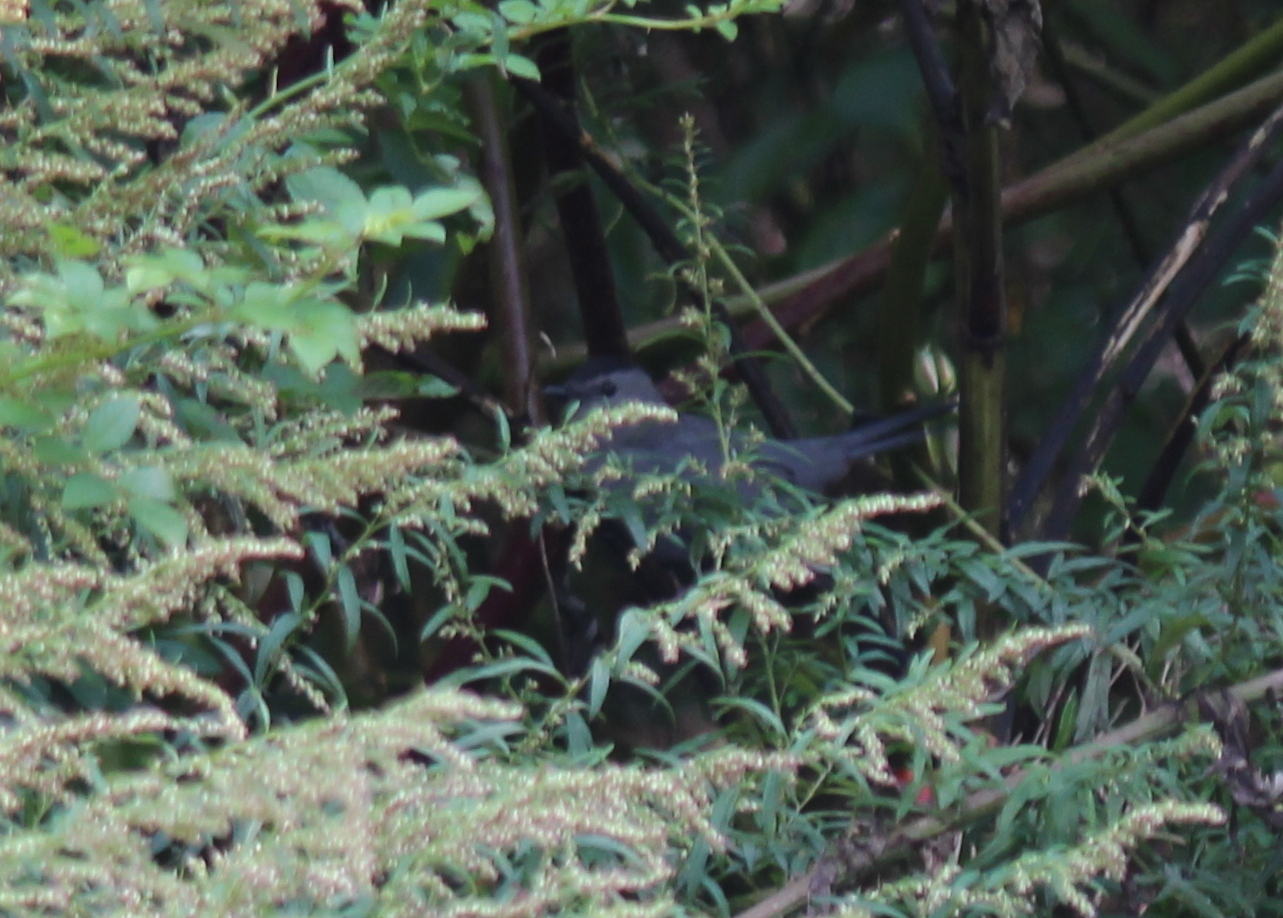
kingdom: Animalia
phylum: Chordata
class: Aves
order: Passeriformes
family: Mimidae
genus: Dumetella
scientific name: Dumetella carolinensis
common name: Gray catbird
